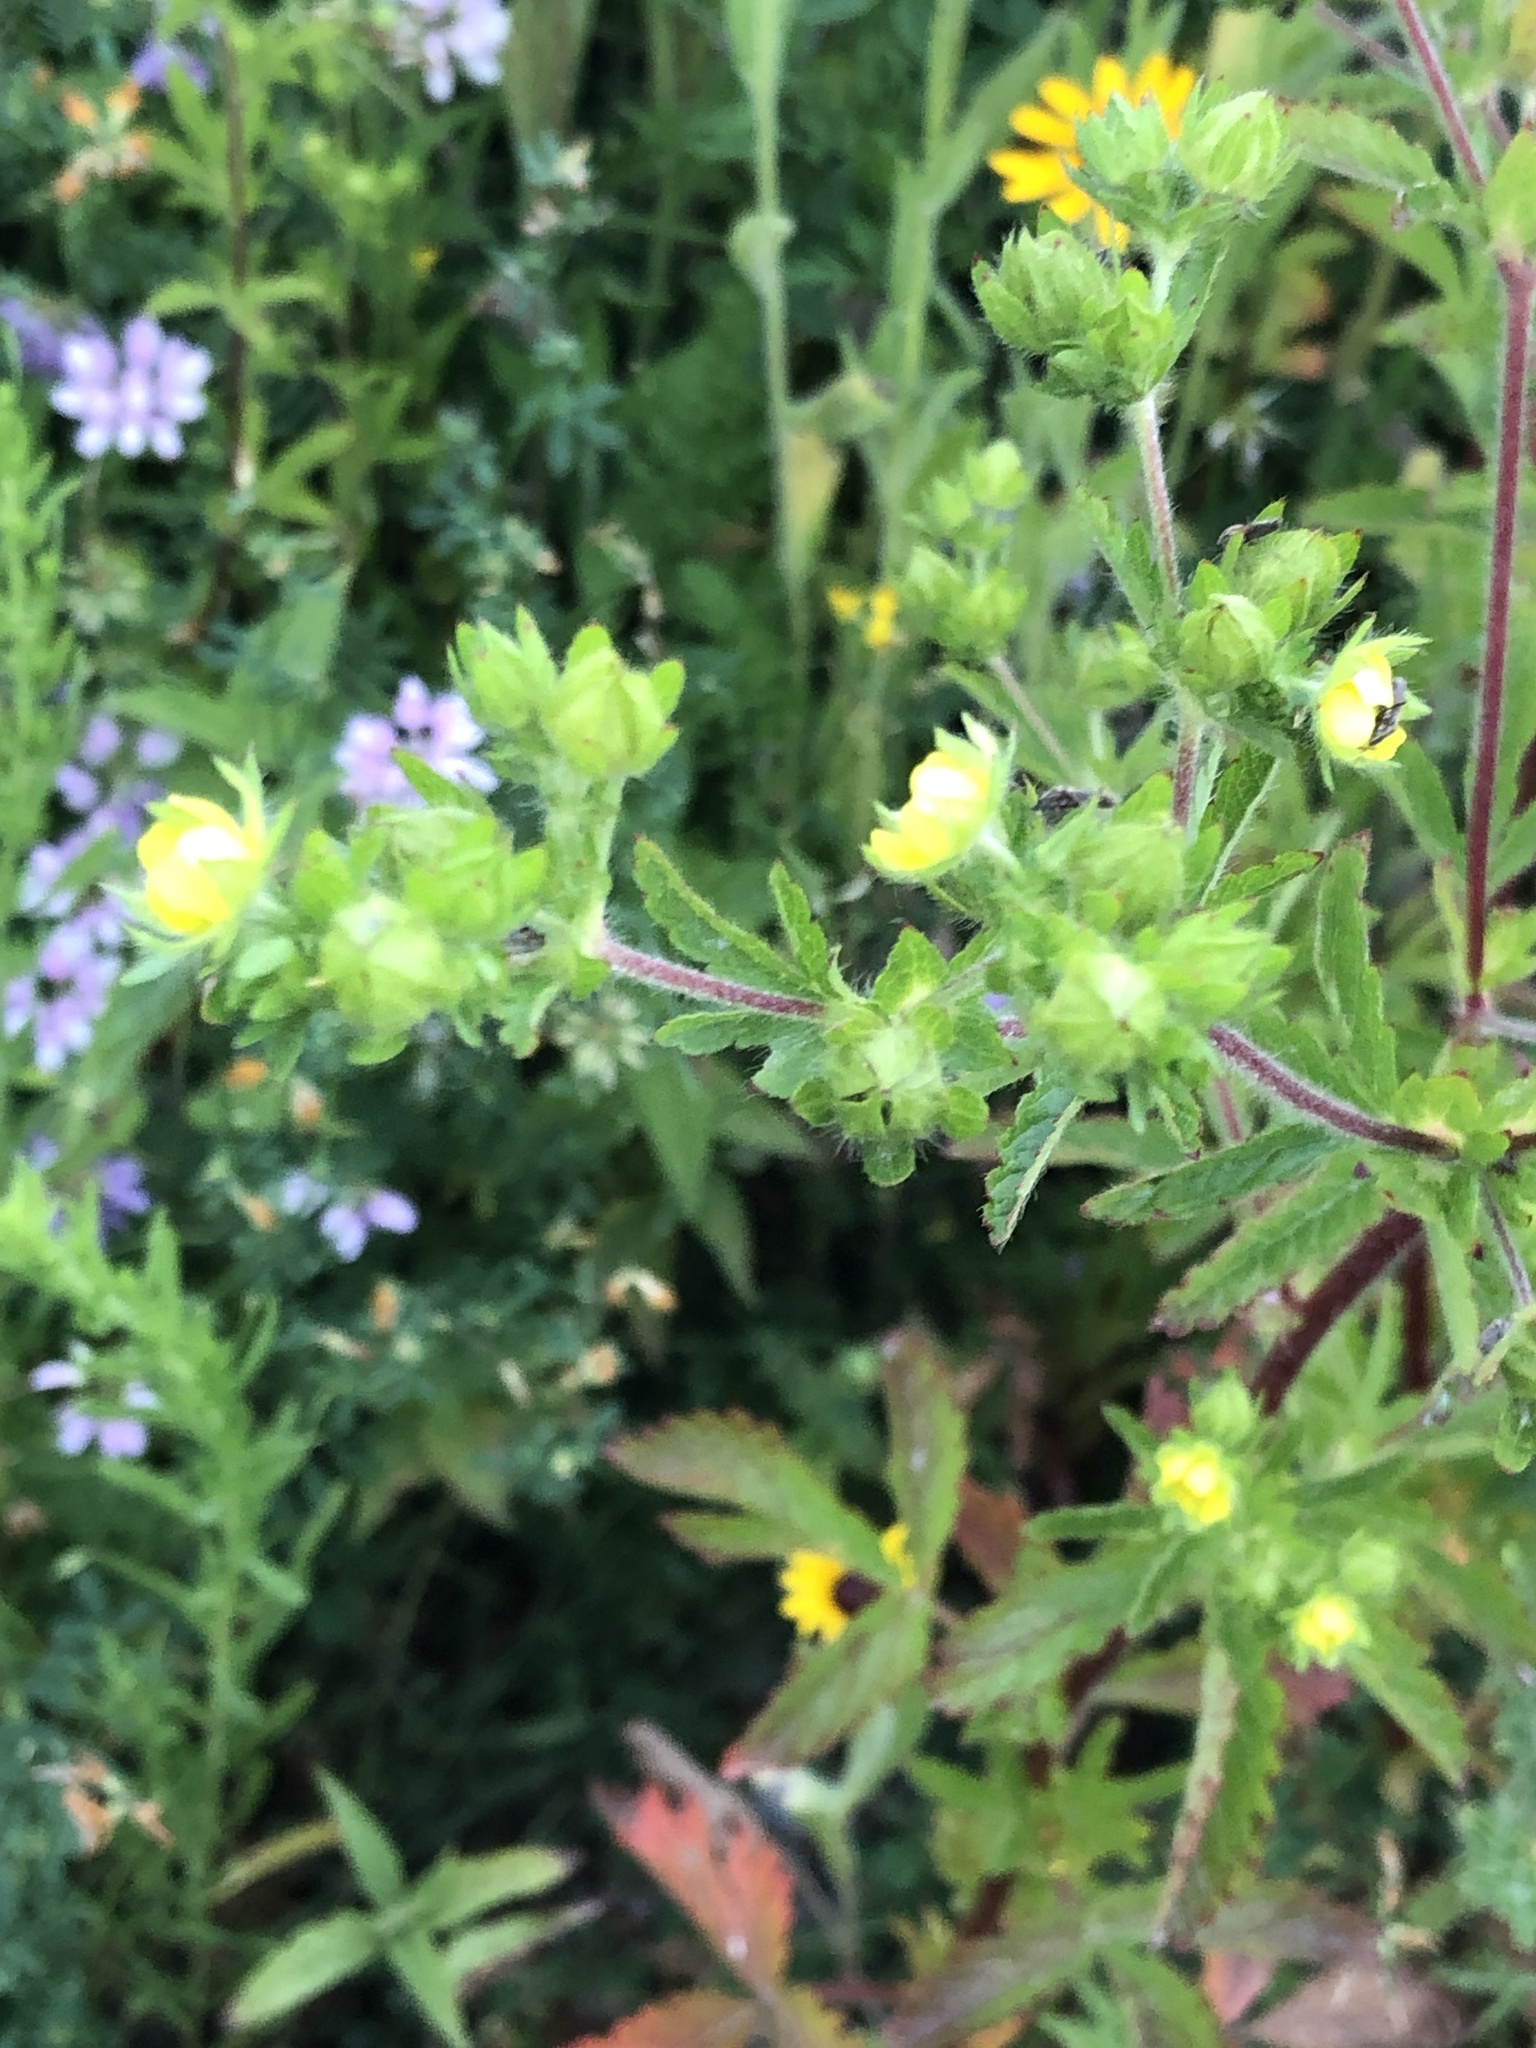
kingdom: Plantae
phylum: Tracheophyta
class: Magnoliopsida
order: Rosales
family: Rosaceae
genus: Potentilla
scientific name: Potentilla norvegica
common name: Ternate-leaved cinquefoil
